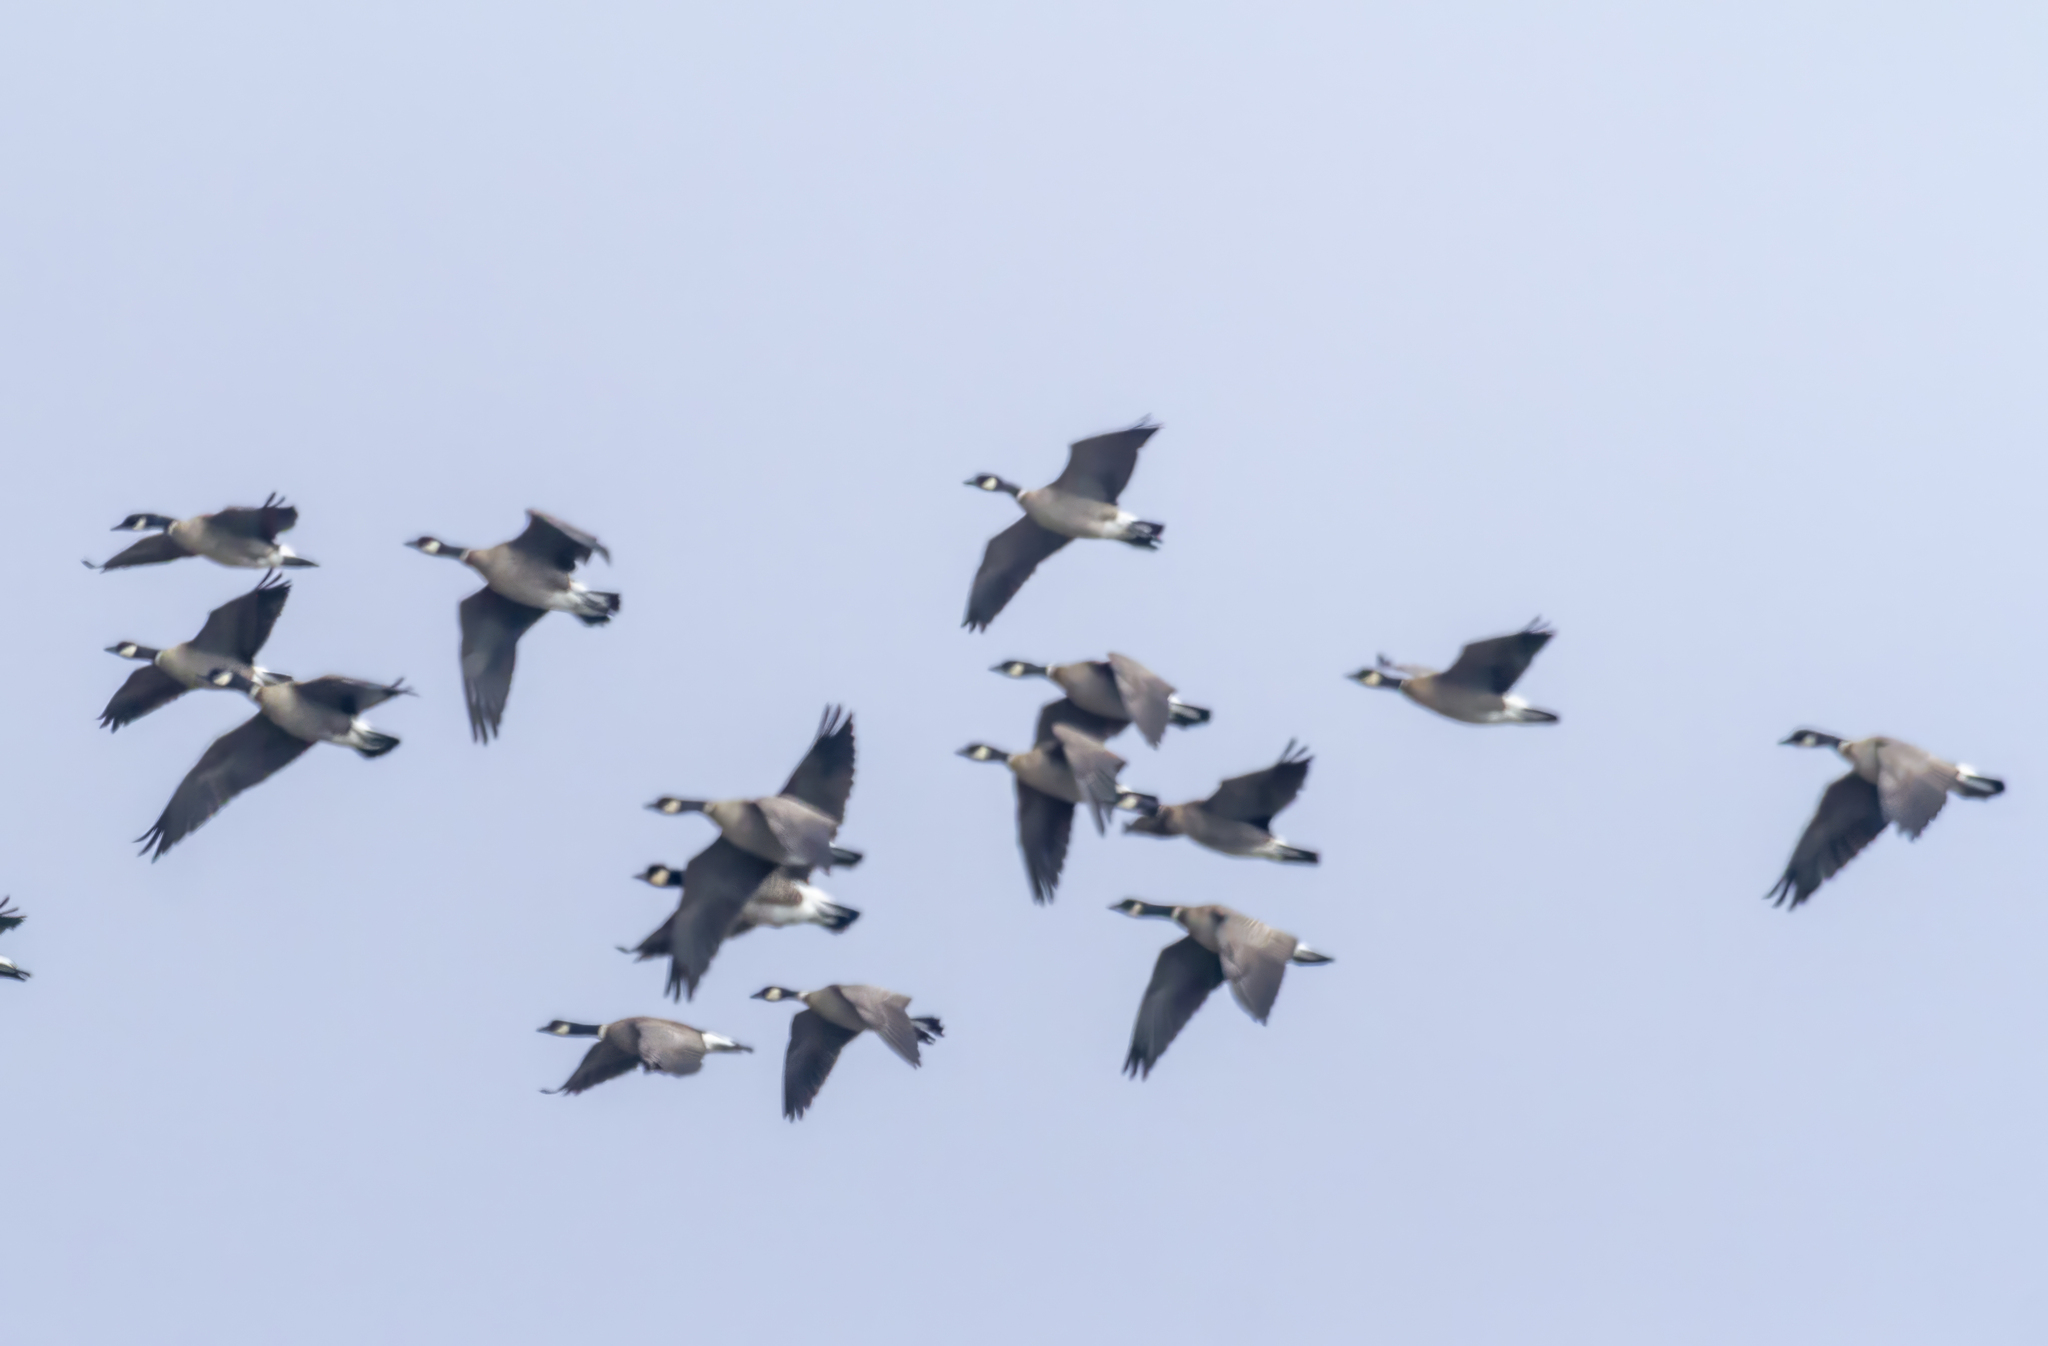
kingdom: Animalia
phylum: Chordata
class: Aves
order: Anseriformes
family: Anatidae
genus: Branta
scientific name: Branta hutchinsii
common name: Cackling goose
